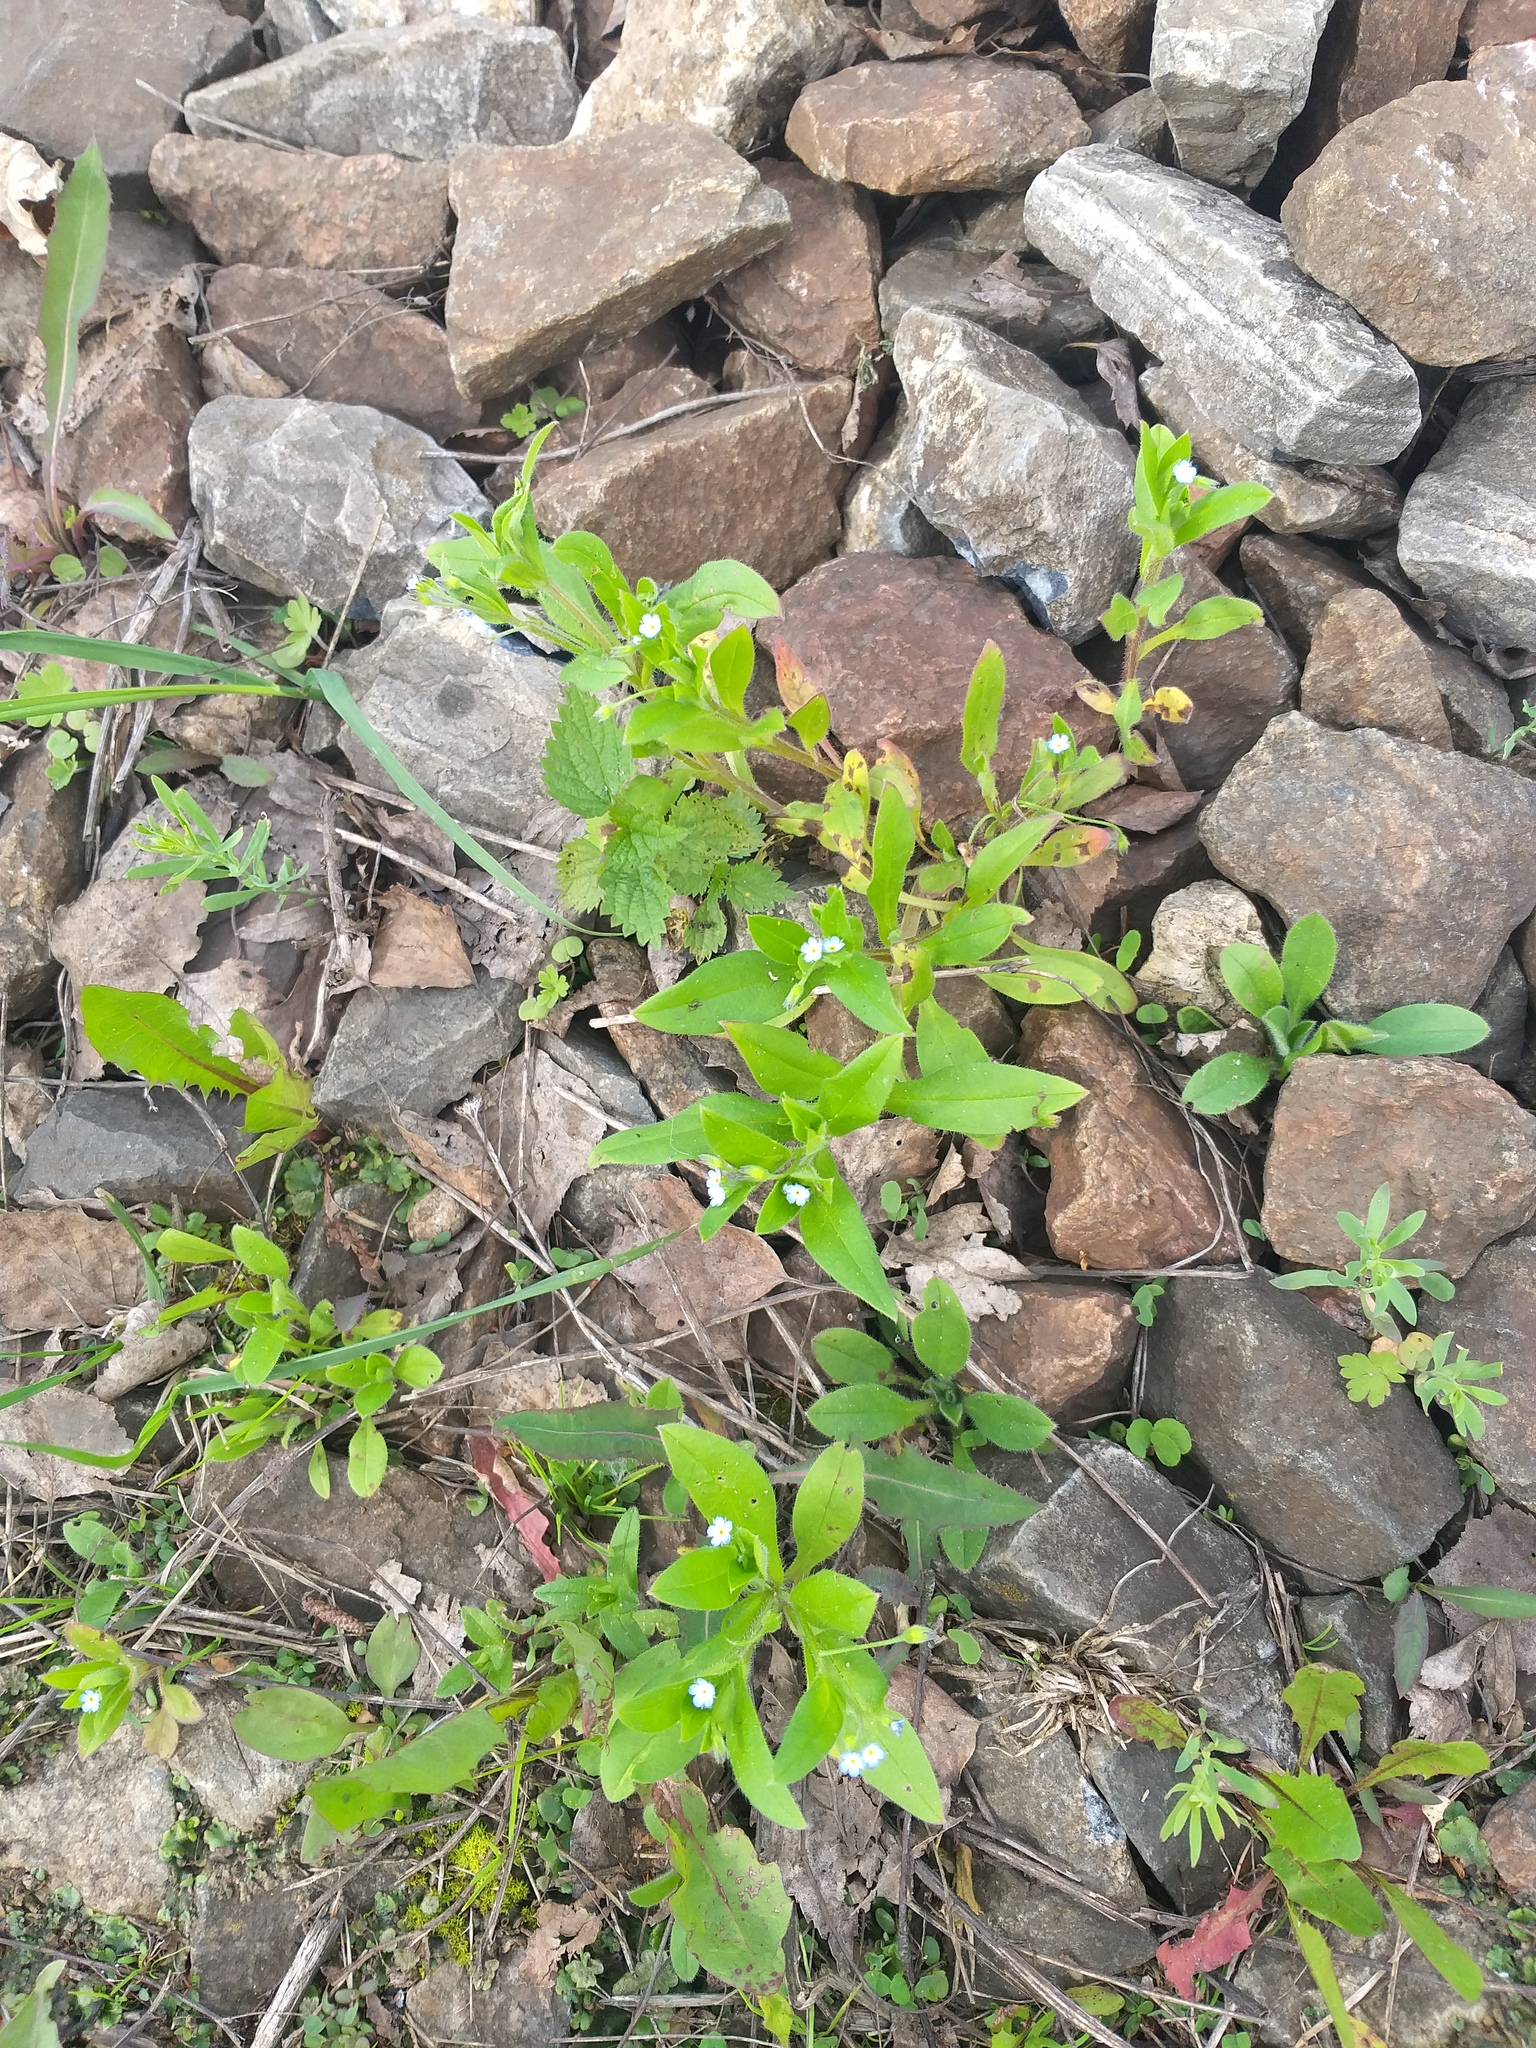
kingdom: Plantae
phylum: Tracheophyta
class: Magnoliopsida
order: Boraginales
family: Boraginaceae
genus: Myosotis
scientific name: Myosotis sparsiflora
